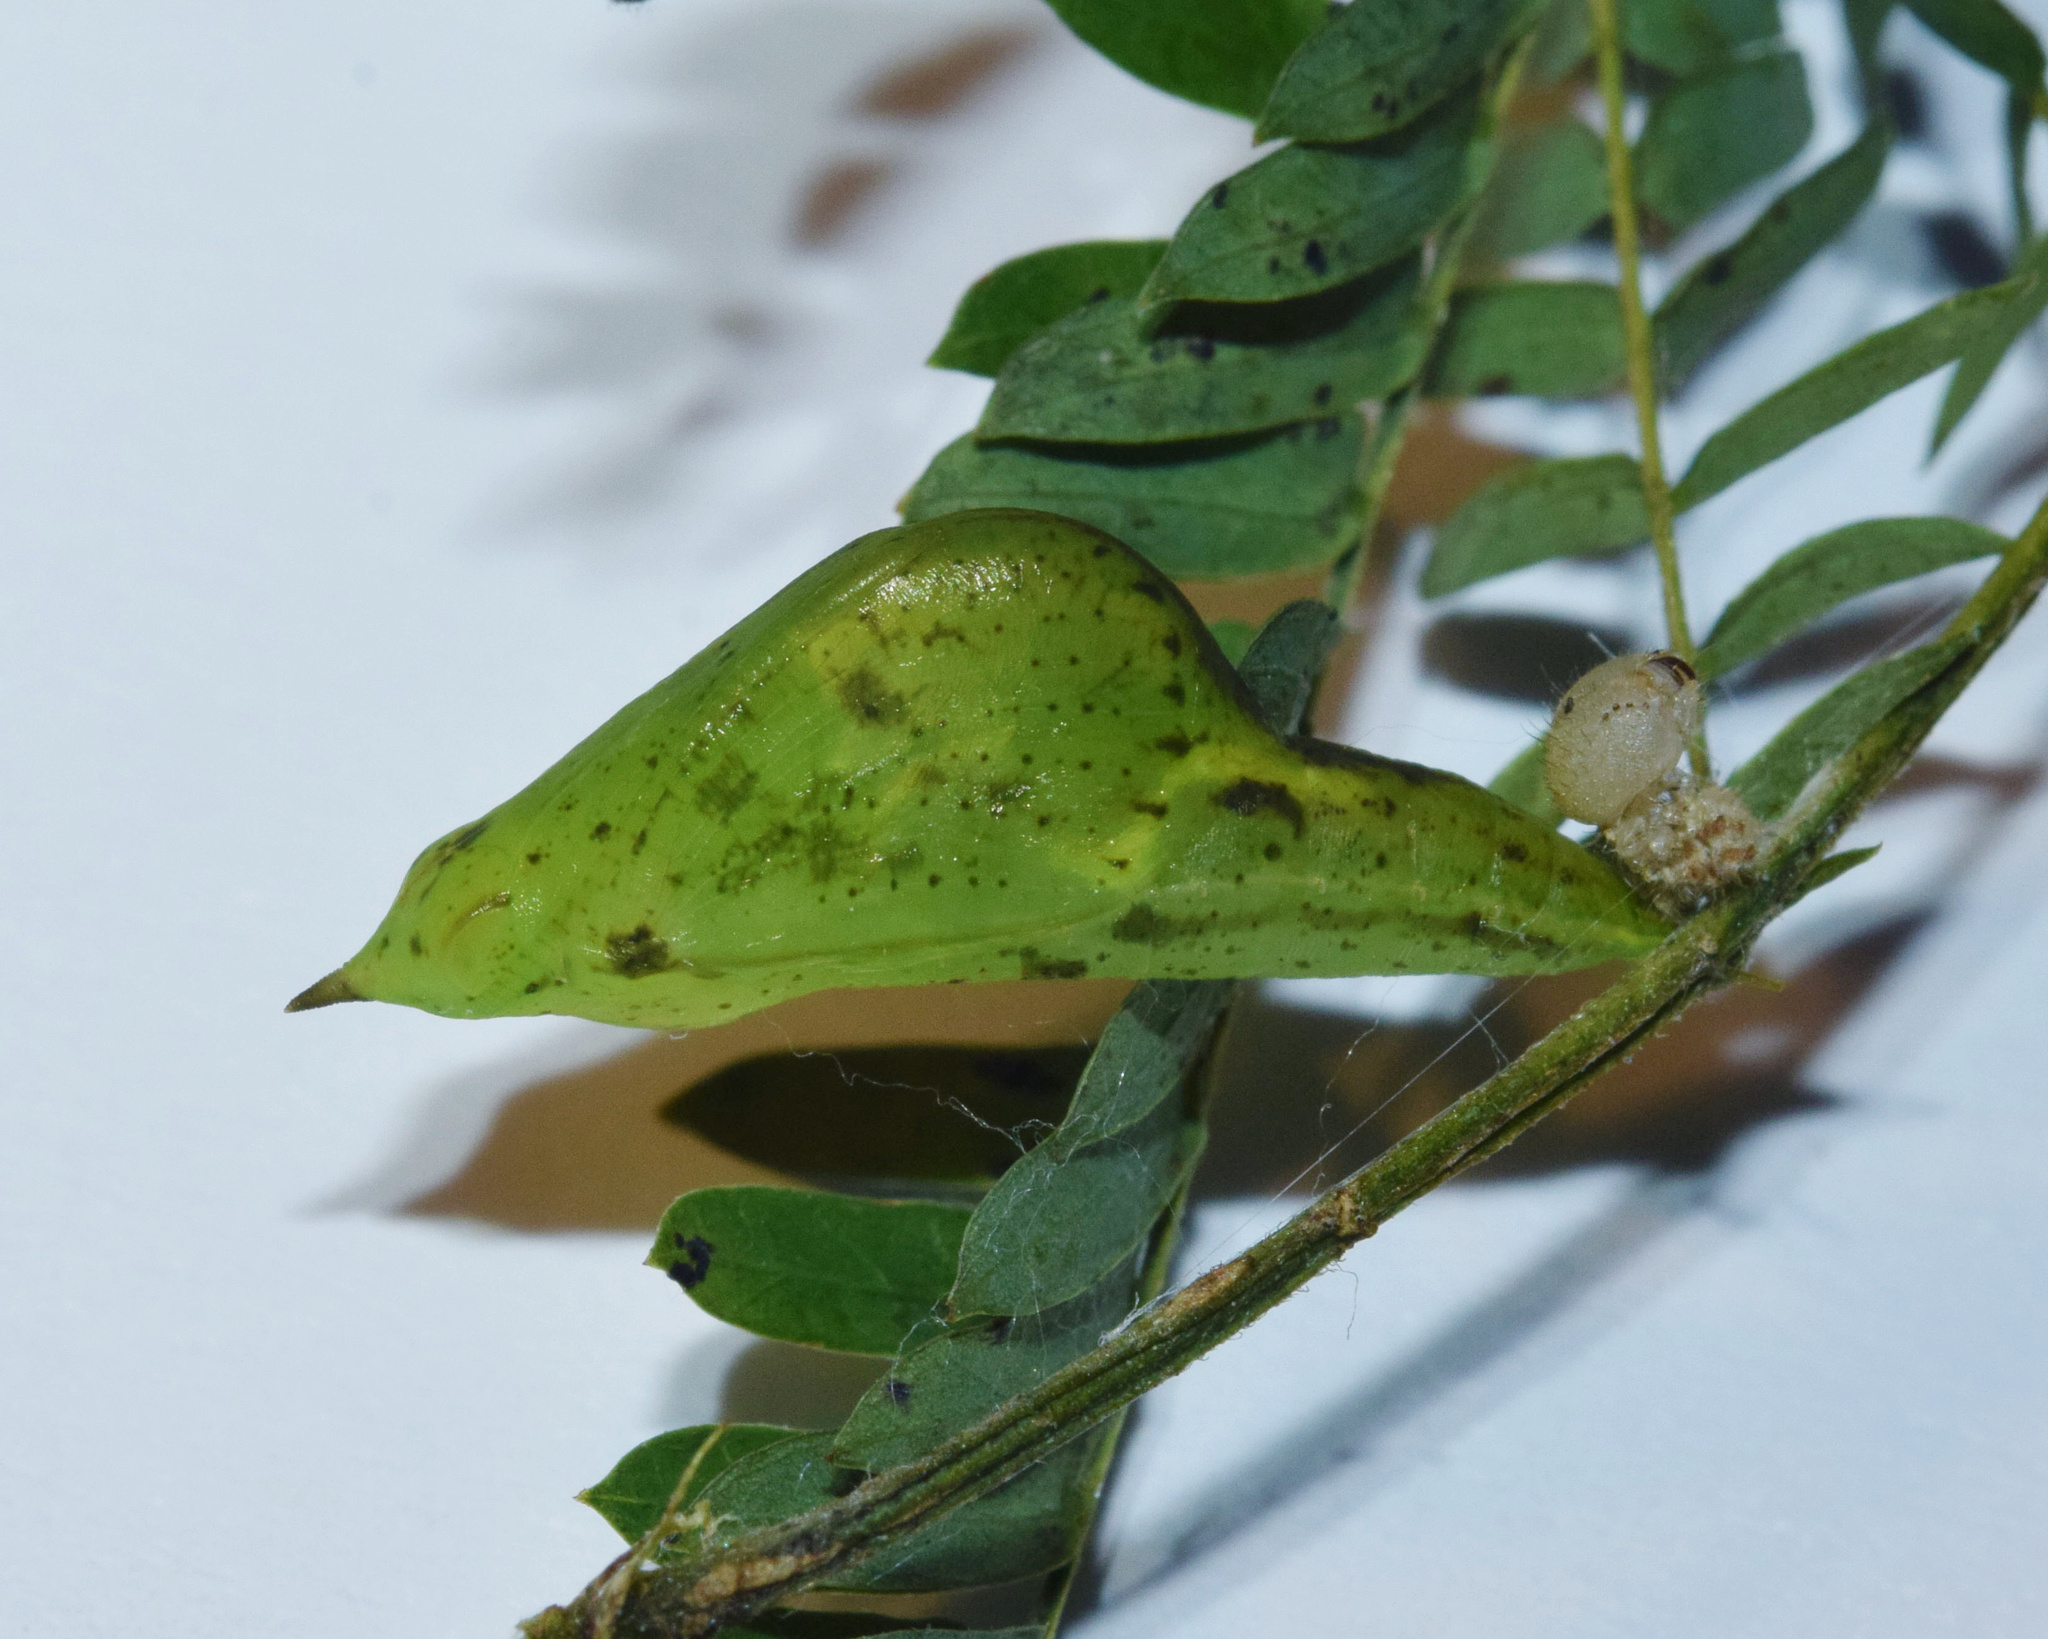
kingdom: Animalia
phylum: Arthropoda
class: Insecta
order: Lepidoptera
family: Pieridae
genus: Eurema
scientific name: Eurema floricola
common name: Malagasy grass yellow
